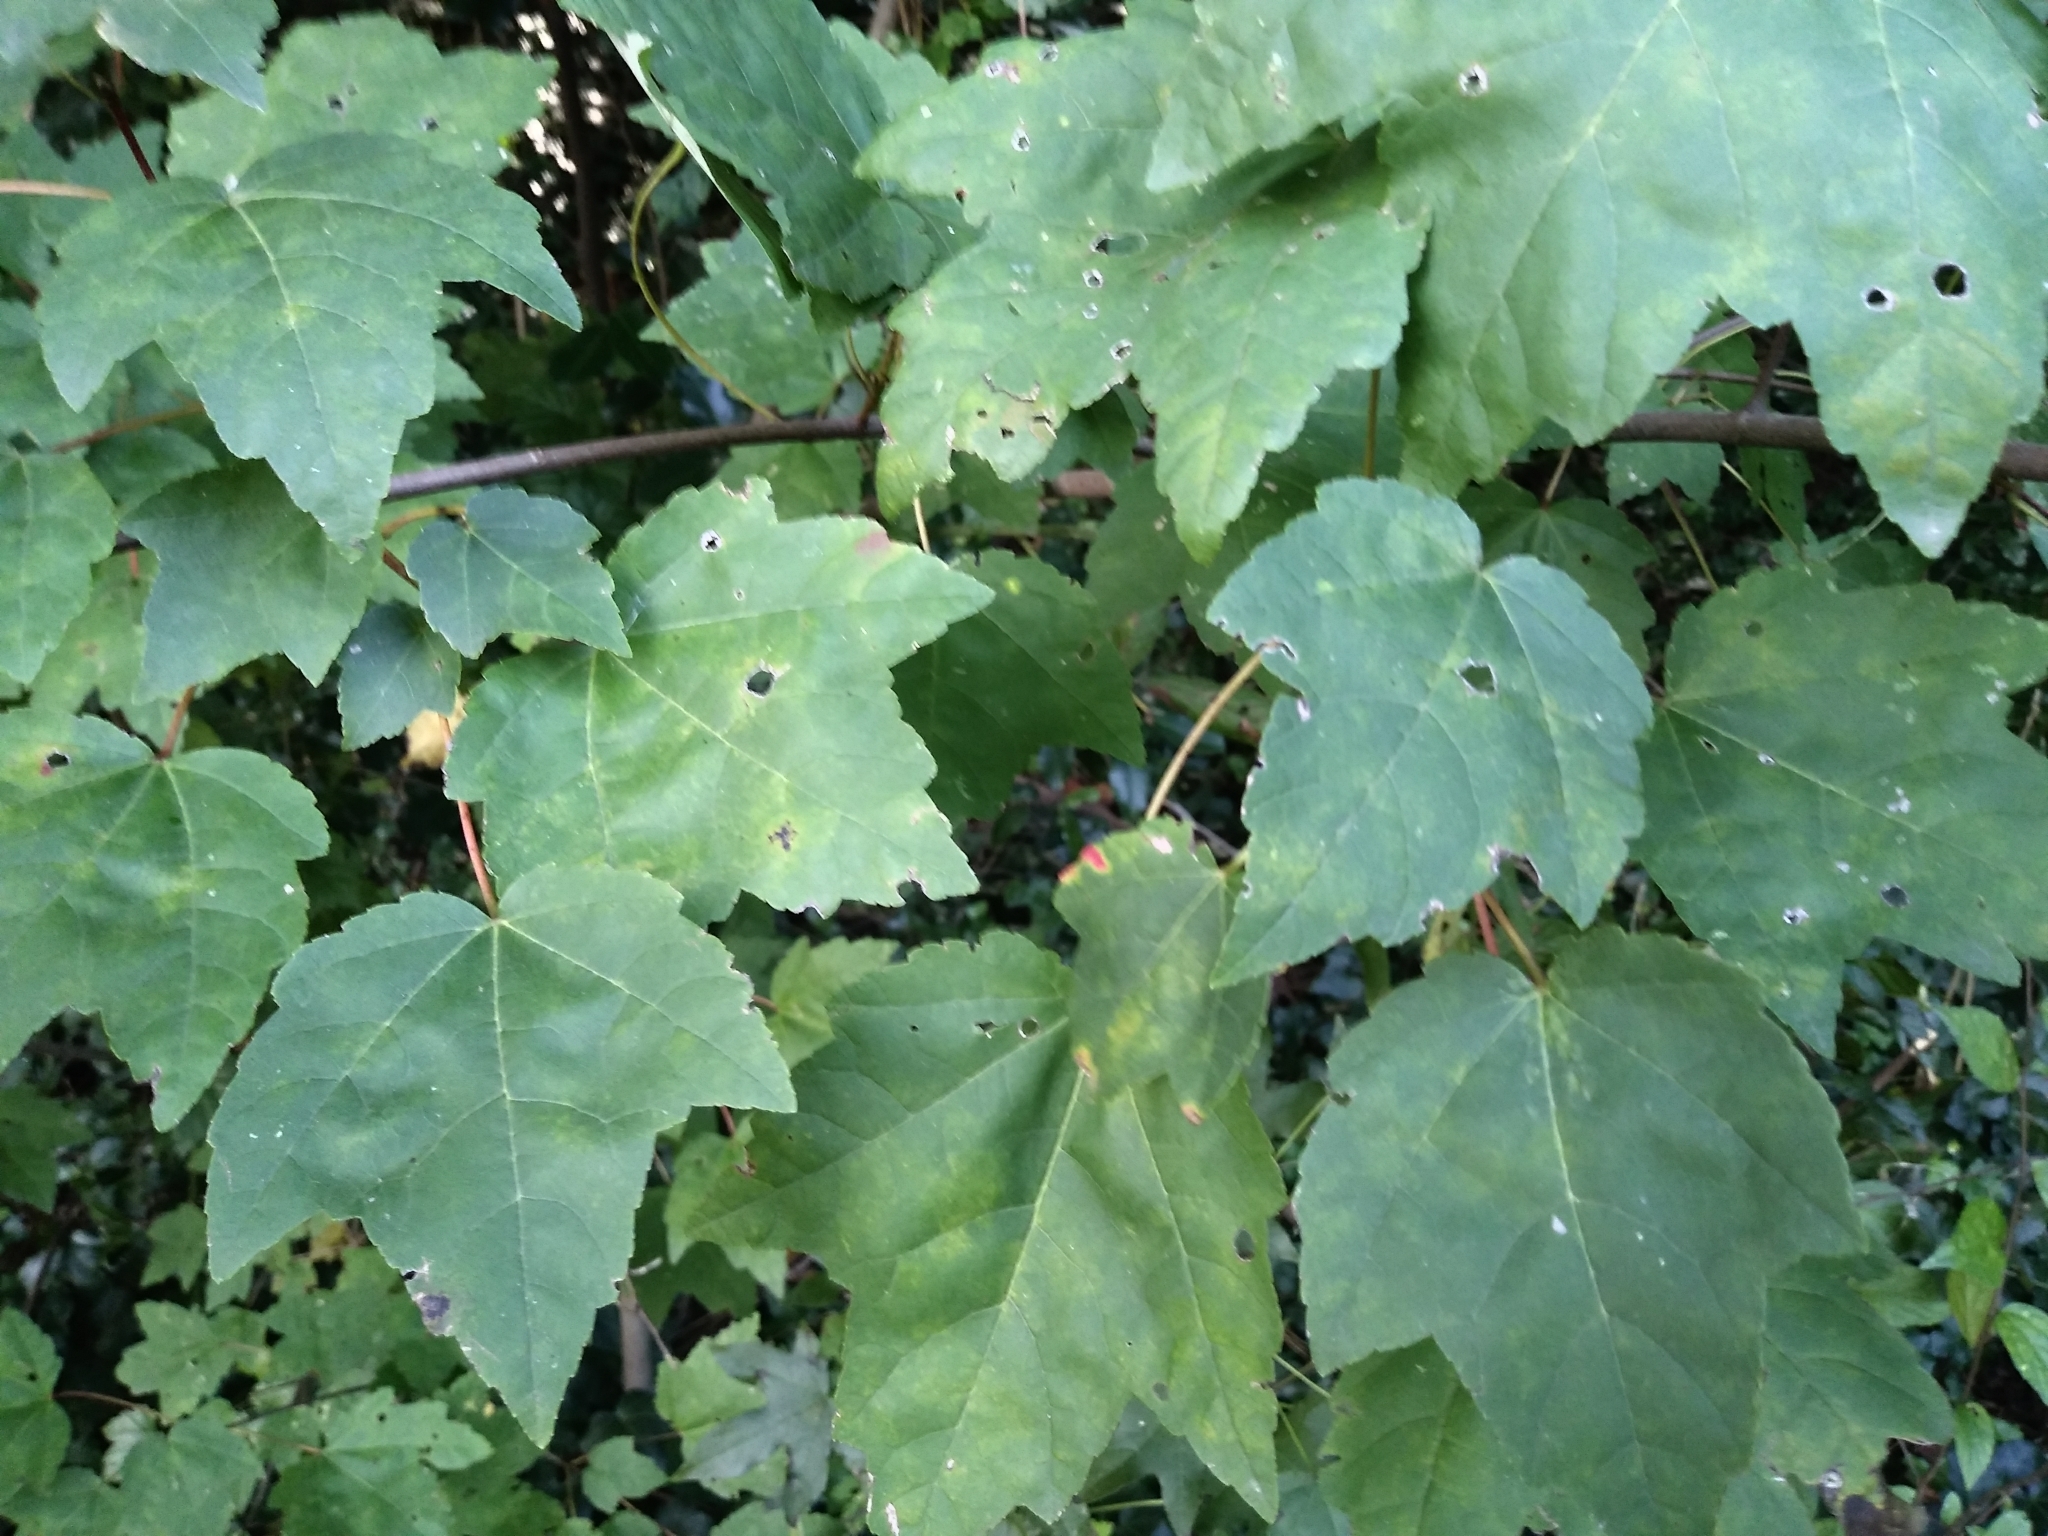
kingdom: Plantae
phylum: Tracheophyta
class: Magnoliopsida
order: Sapindales
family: Sapindaceae
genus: Acer
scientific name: Acer rubrum
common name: Red maple
